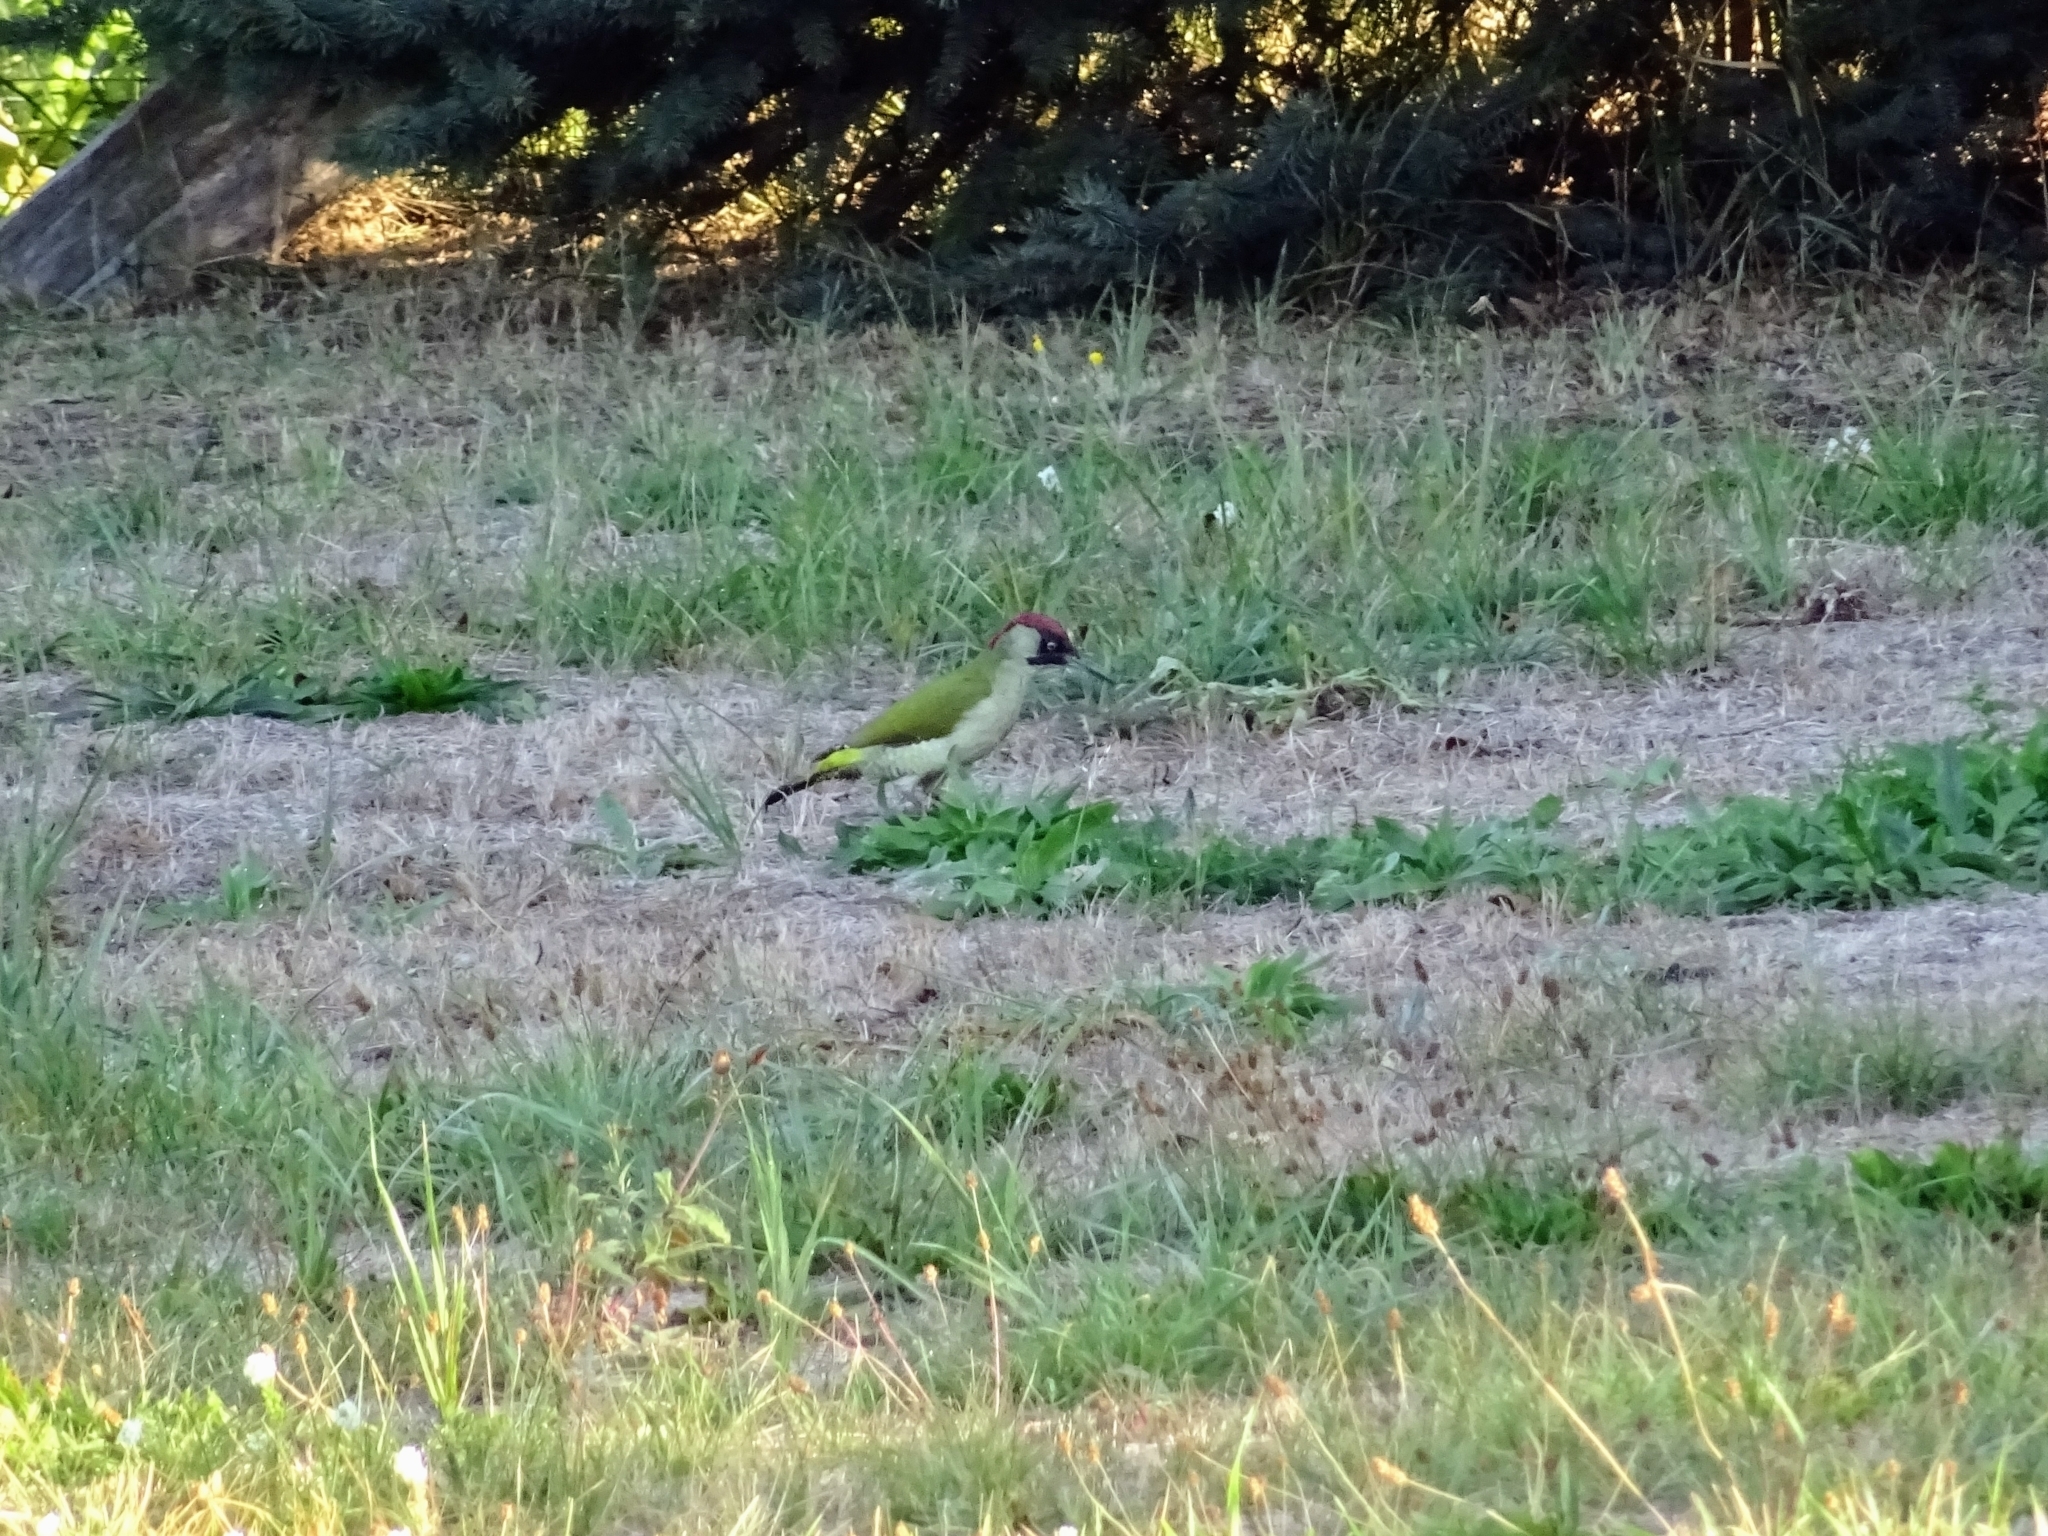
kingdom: Animalia
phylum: Chordata
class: Aves
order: Piciformes
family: Picidae
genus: Picus
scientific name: Picus viridis
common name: European green woodpecker
